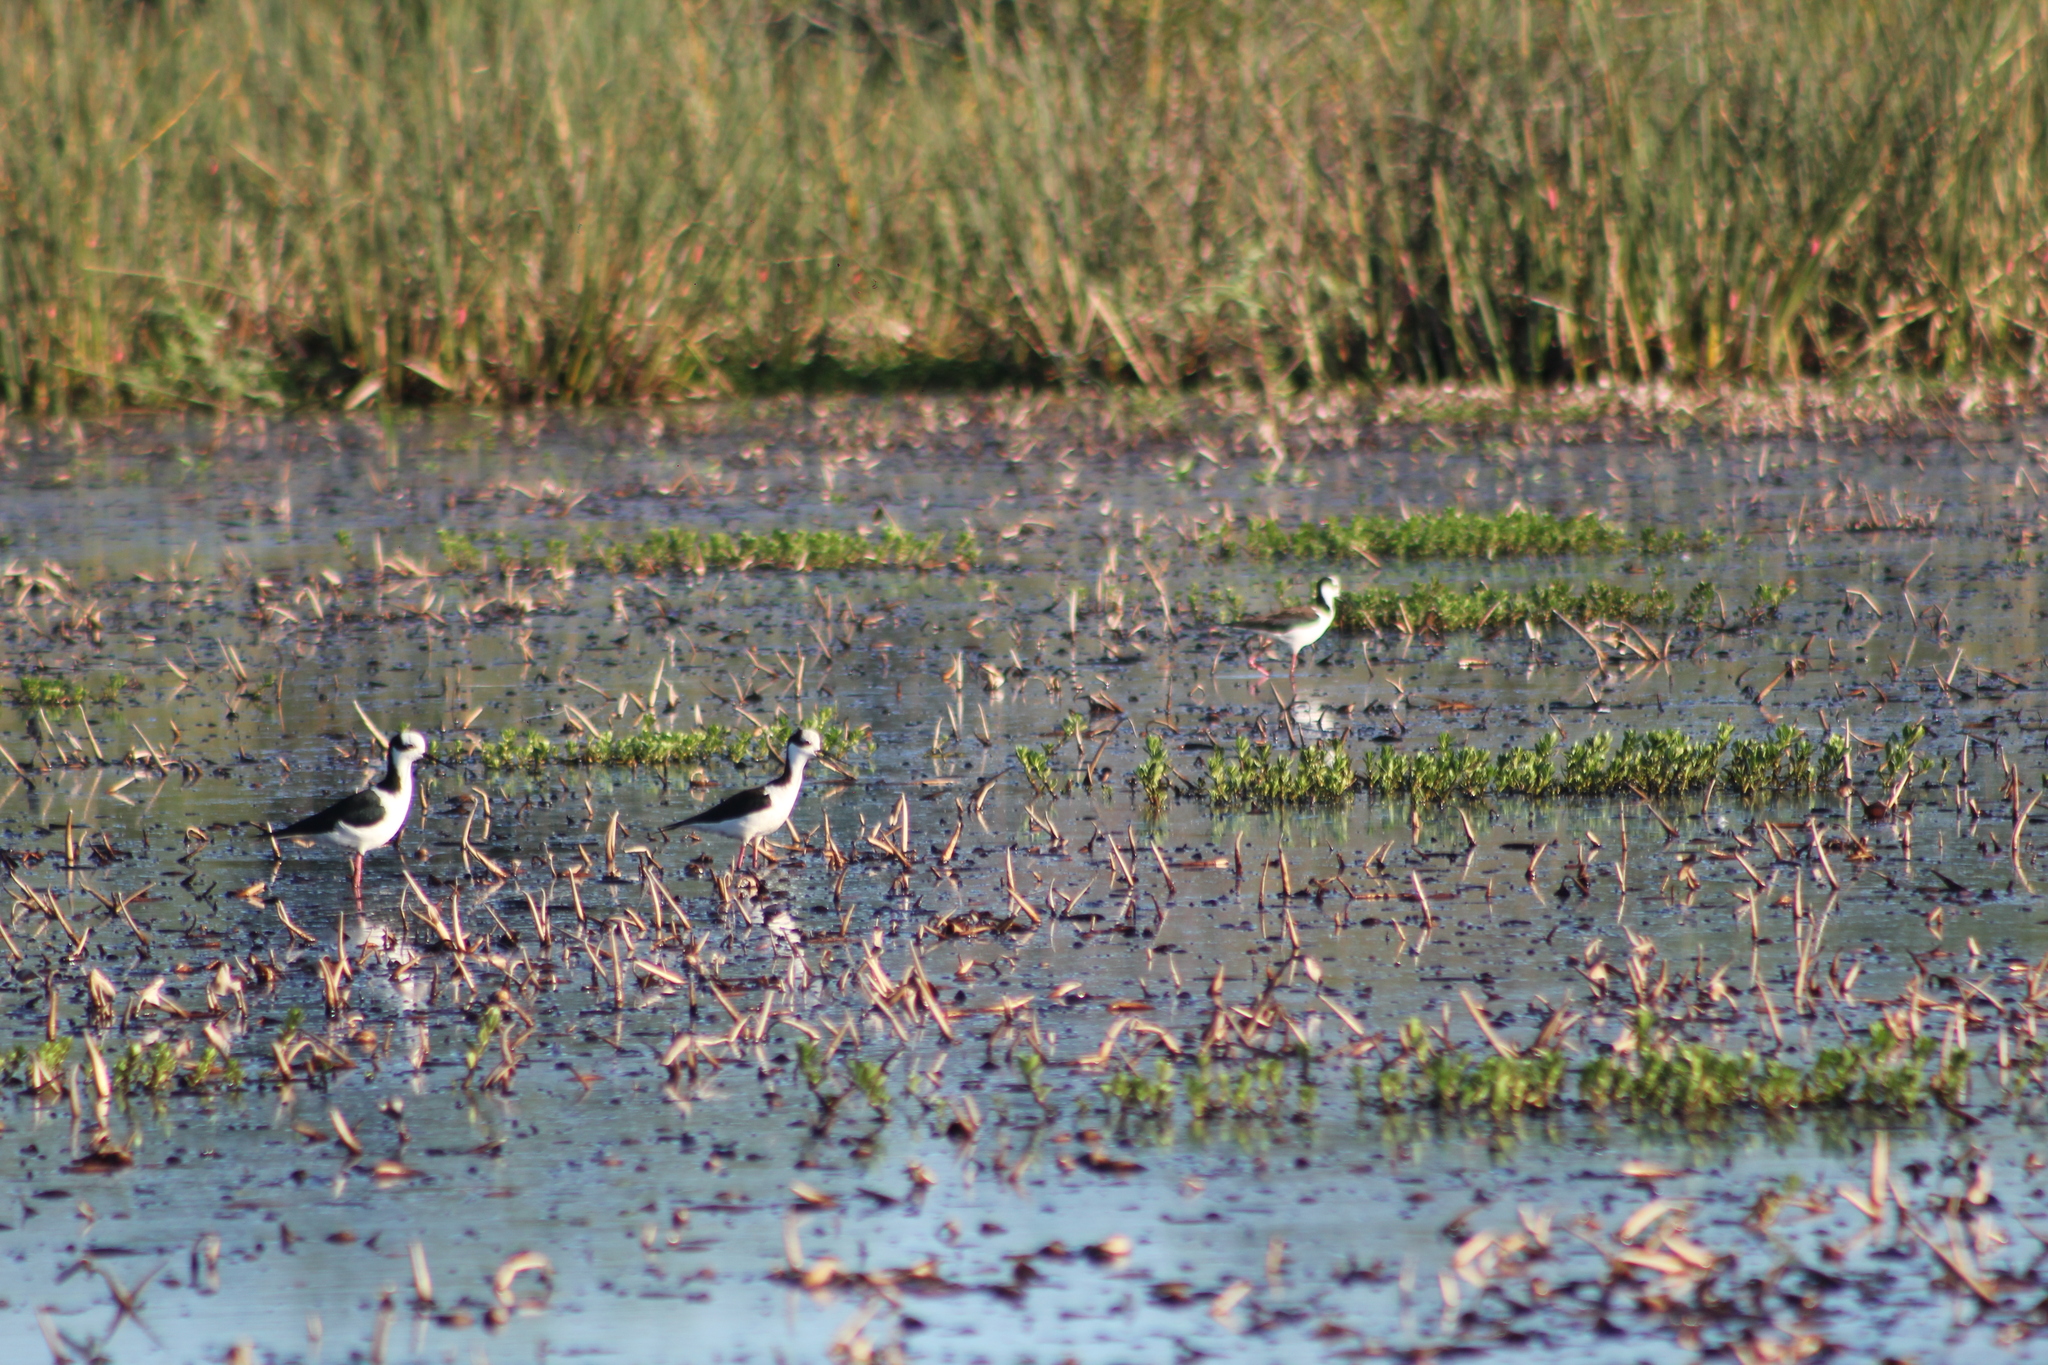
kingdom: Animalia
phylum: Chordata
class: Aves
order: Charadriiformes
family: Recurvirostridae
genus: Himantopus
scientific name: Himantopus mexicanus
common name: Black-necked stilt
